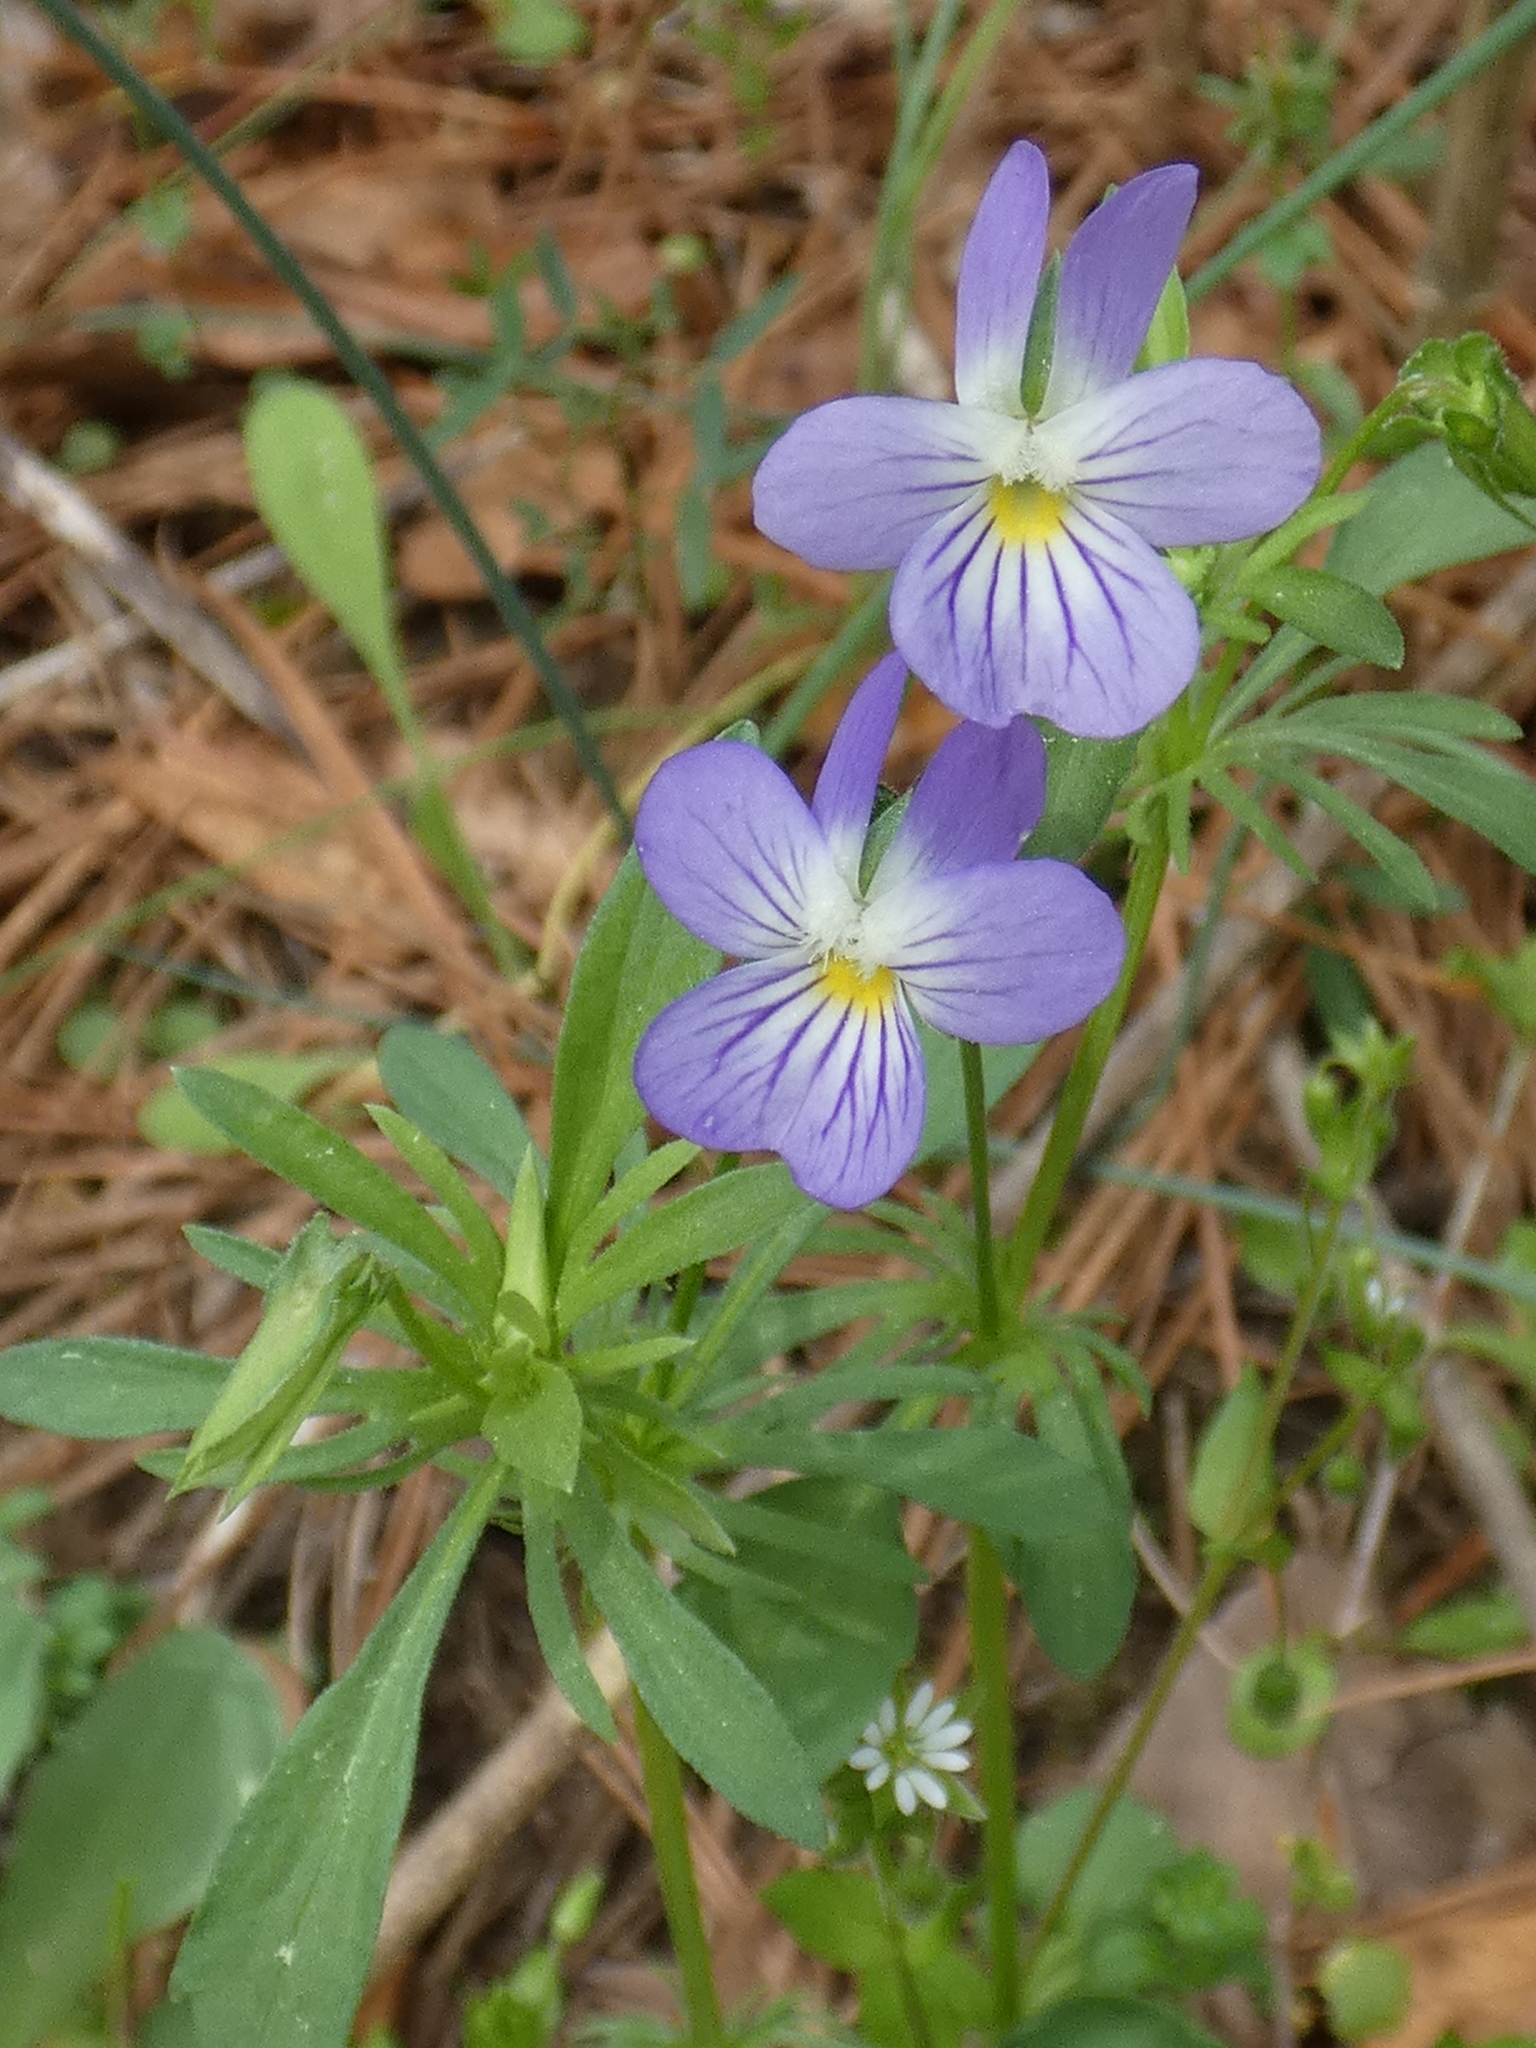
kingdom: Plantae
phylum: Tracheophyta
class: Magnoliopsida
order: Malpighiales
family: Violaceae
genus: Viola
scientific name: Viola rafinesquei
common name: American field pansy
